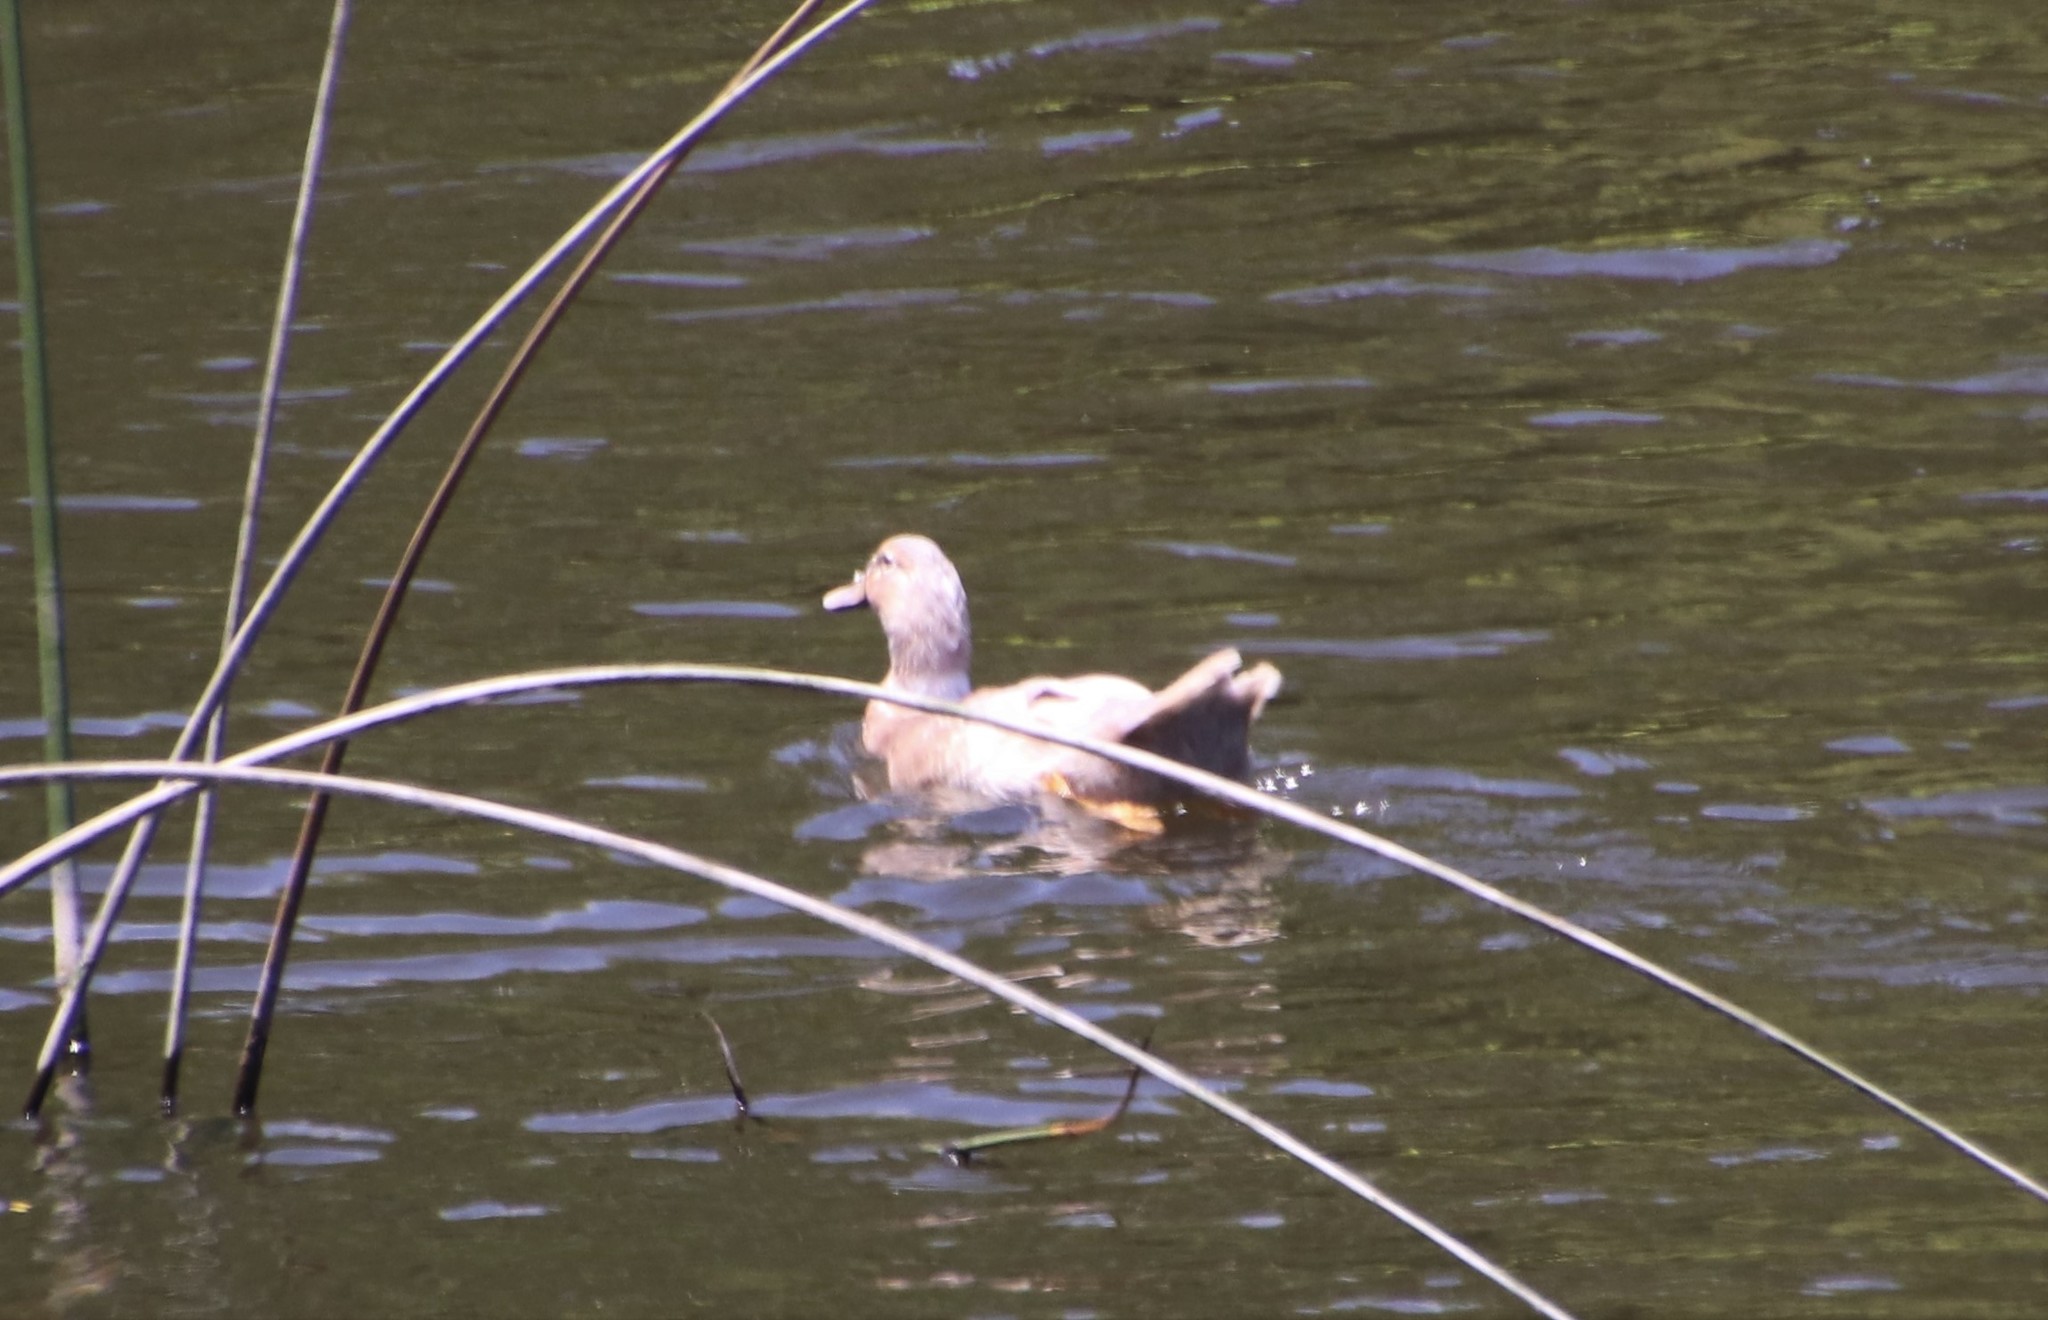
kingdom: Animalia
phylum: Chordata
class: Aves
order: Anseriformes
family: Anatidae
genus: Anas
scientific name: Anas platyrhynchos
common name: Mallard
